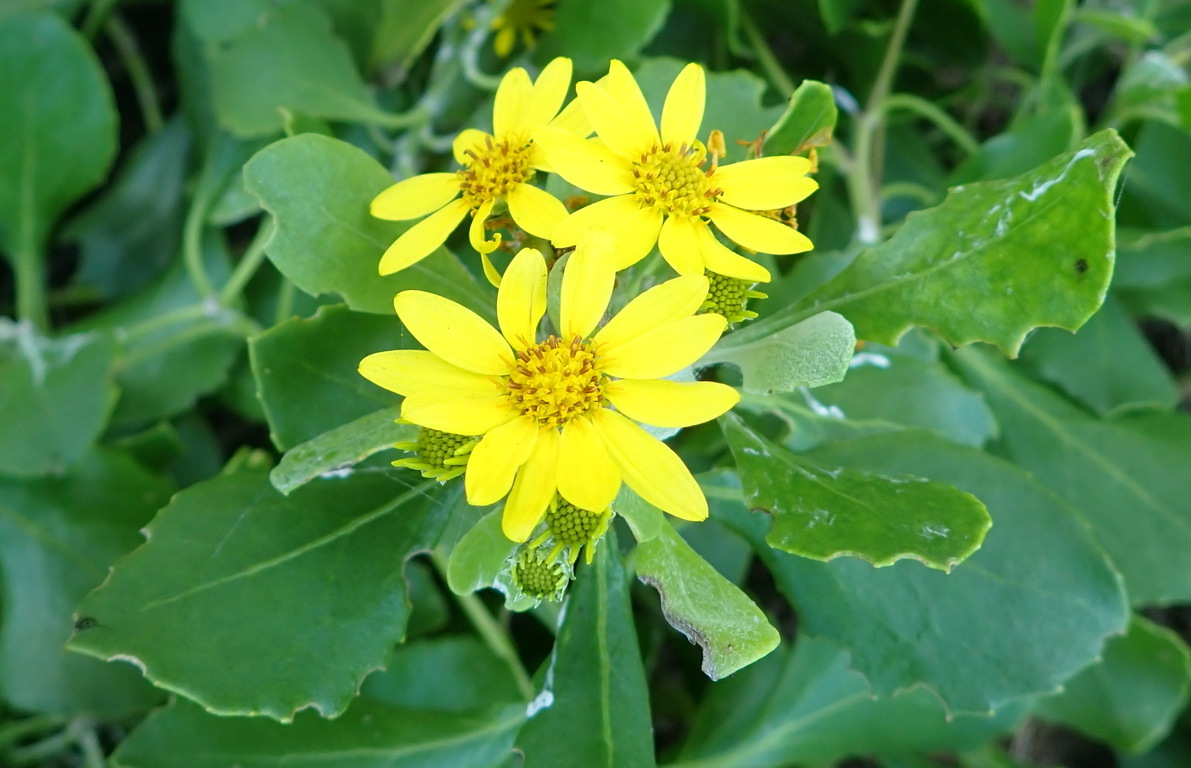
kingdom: Plantae
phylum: Tracheophyta
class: Magnoliopsida
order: Asterales
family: Asteraceae
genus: Osteospermum
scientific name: Osteospermum moniliferum
